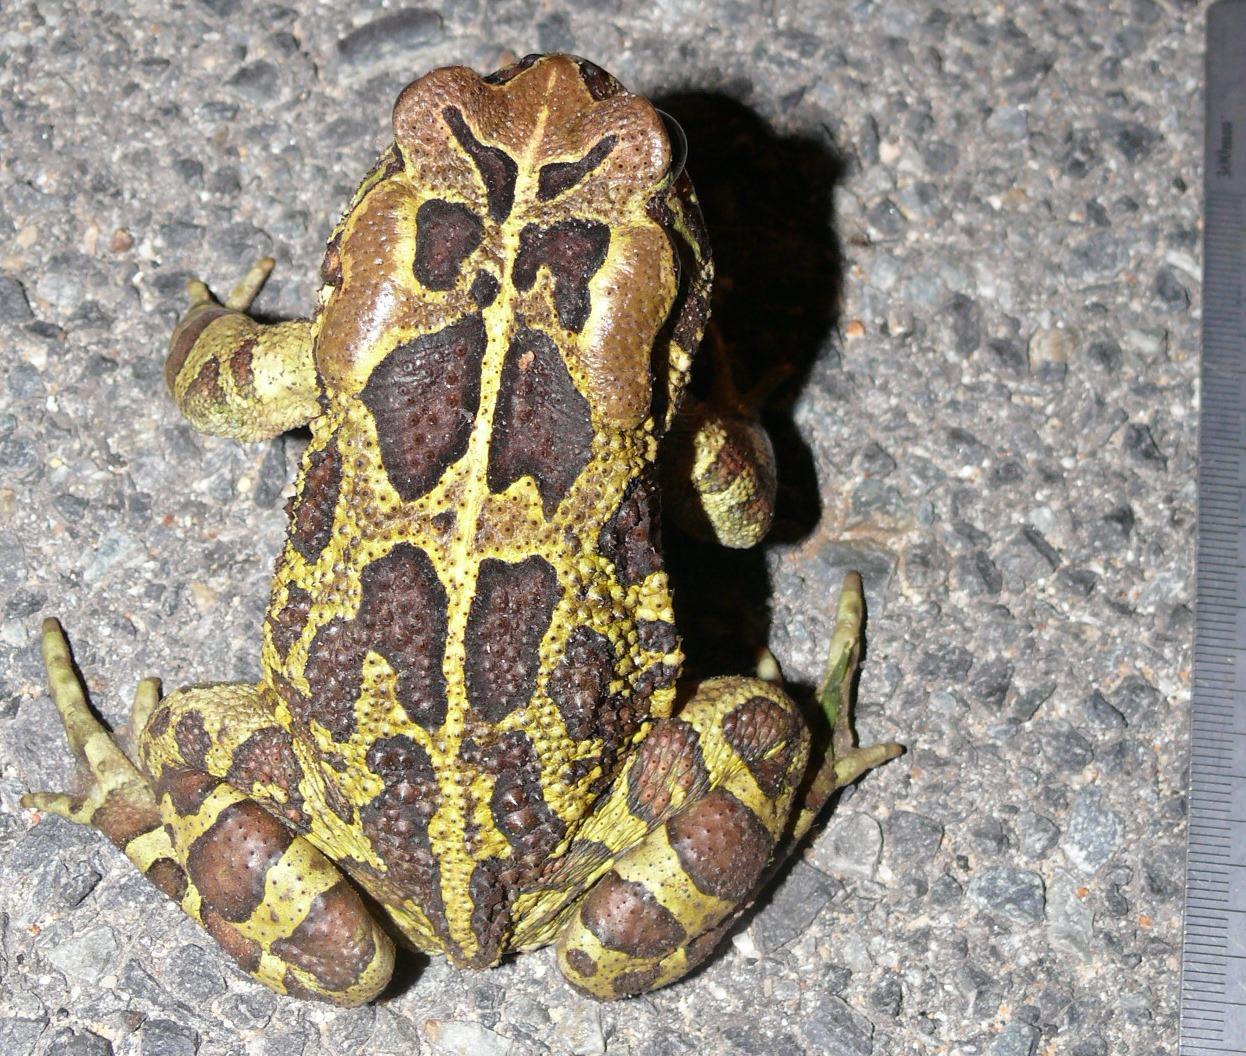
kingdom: Animalia
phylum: Chordata
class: Amphibia
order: Anura
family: Bufonidae
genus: Sclerophrys
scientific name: Sclerophrys pantherina
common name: Panther toad
